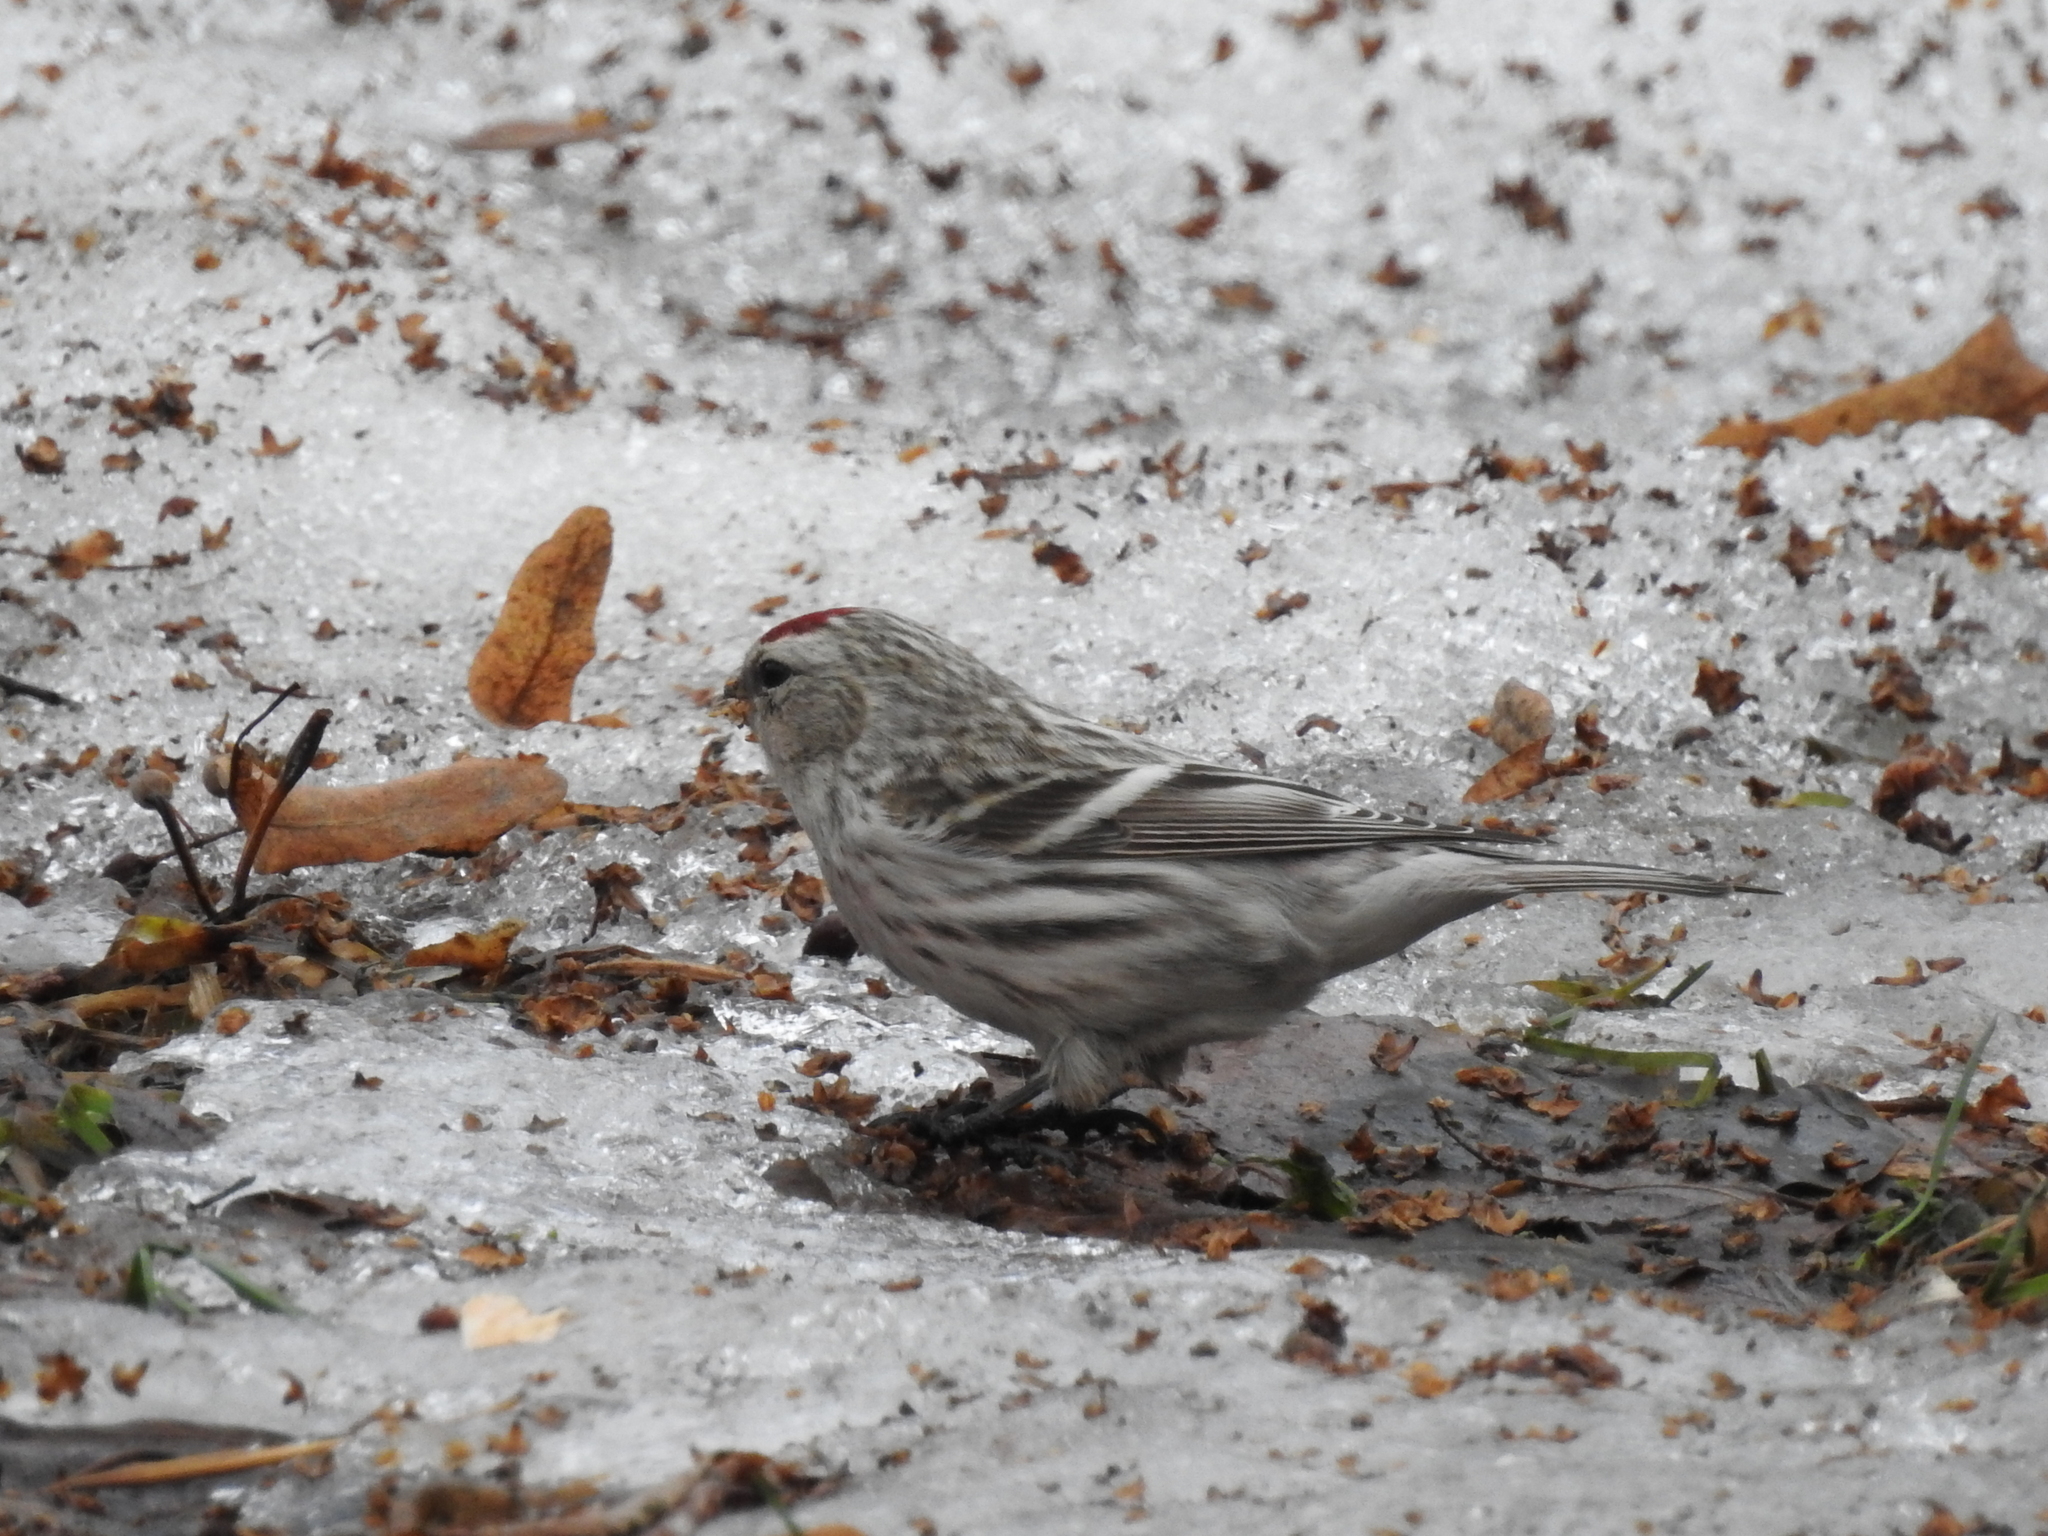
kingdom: Animalia
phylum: Chordata
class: Aves
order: Passeriformes
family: Fringillidae
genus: Acanthis
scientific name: Acanthis flammea
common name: Common redpoll
